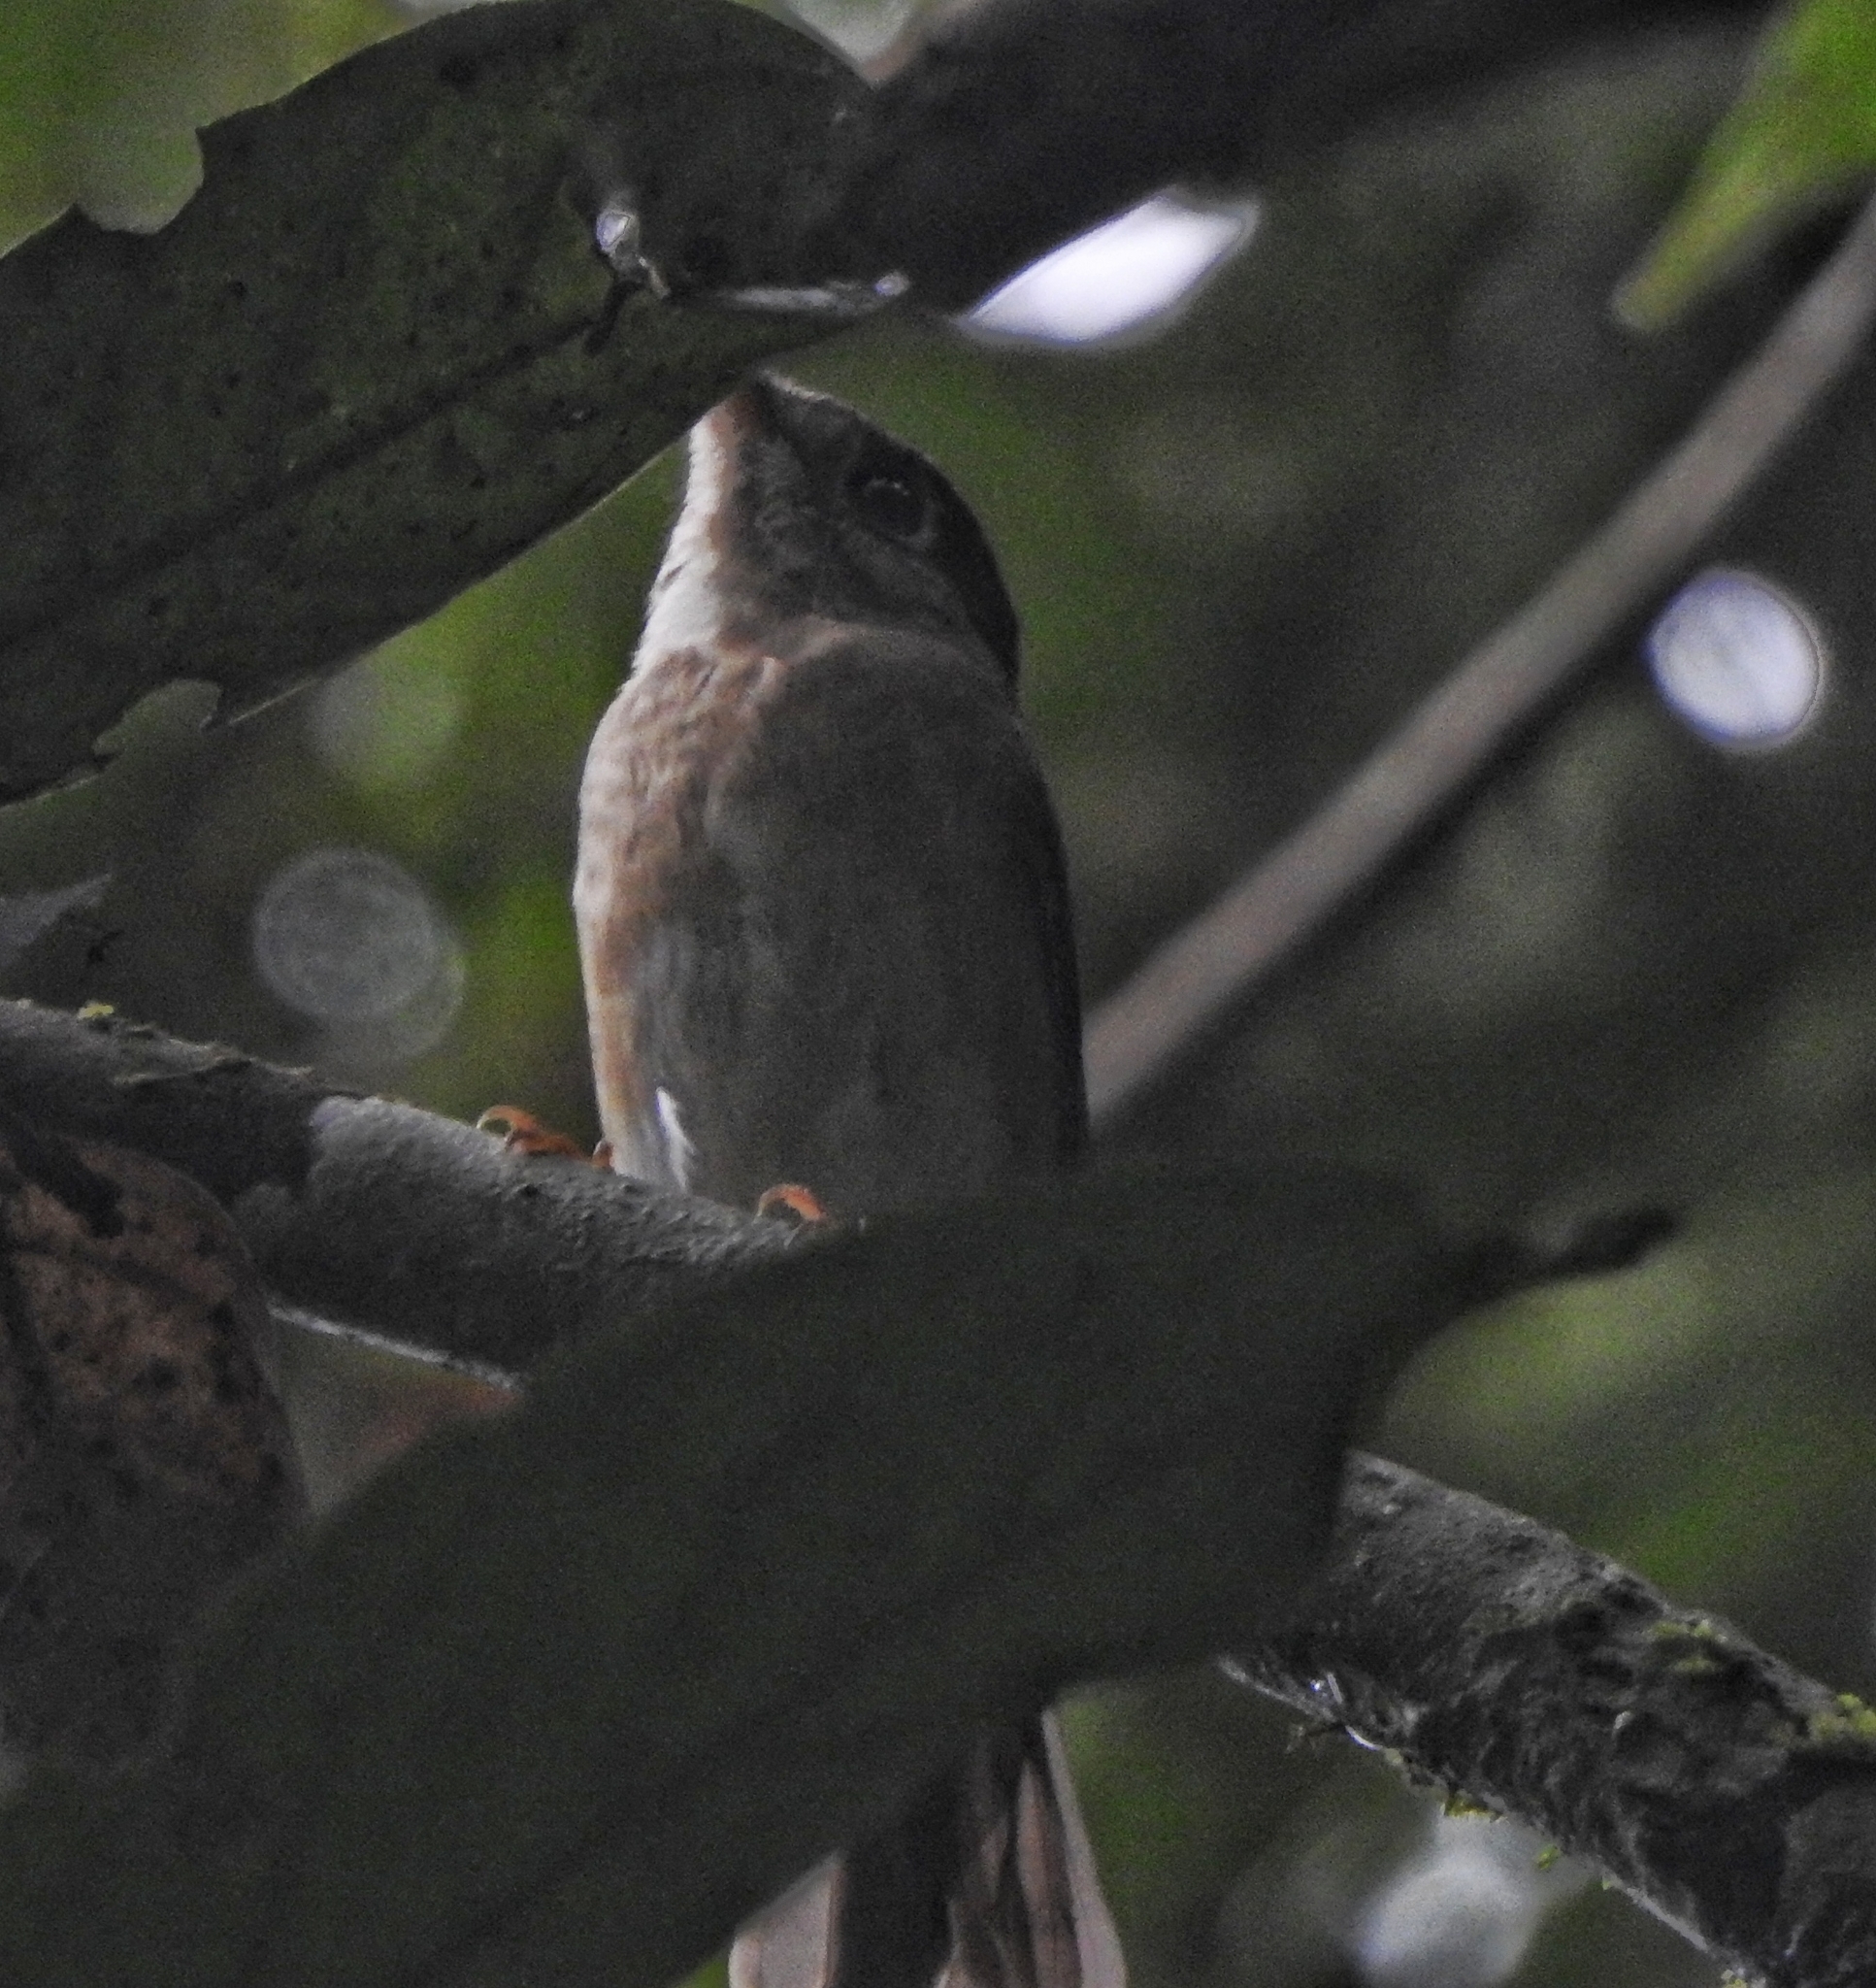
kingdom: Animalia
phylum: Chordata
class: Aves
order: Passeriformes
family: Muscicapidae
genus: Muscicapa
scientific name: Muscicapa muttui
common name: Brown-breasted flycatcher
